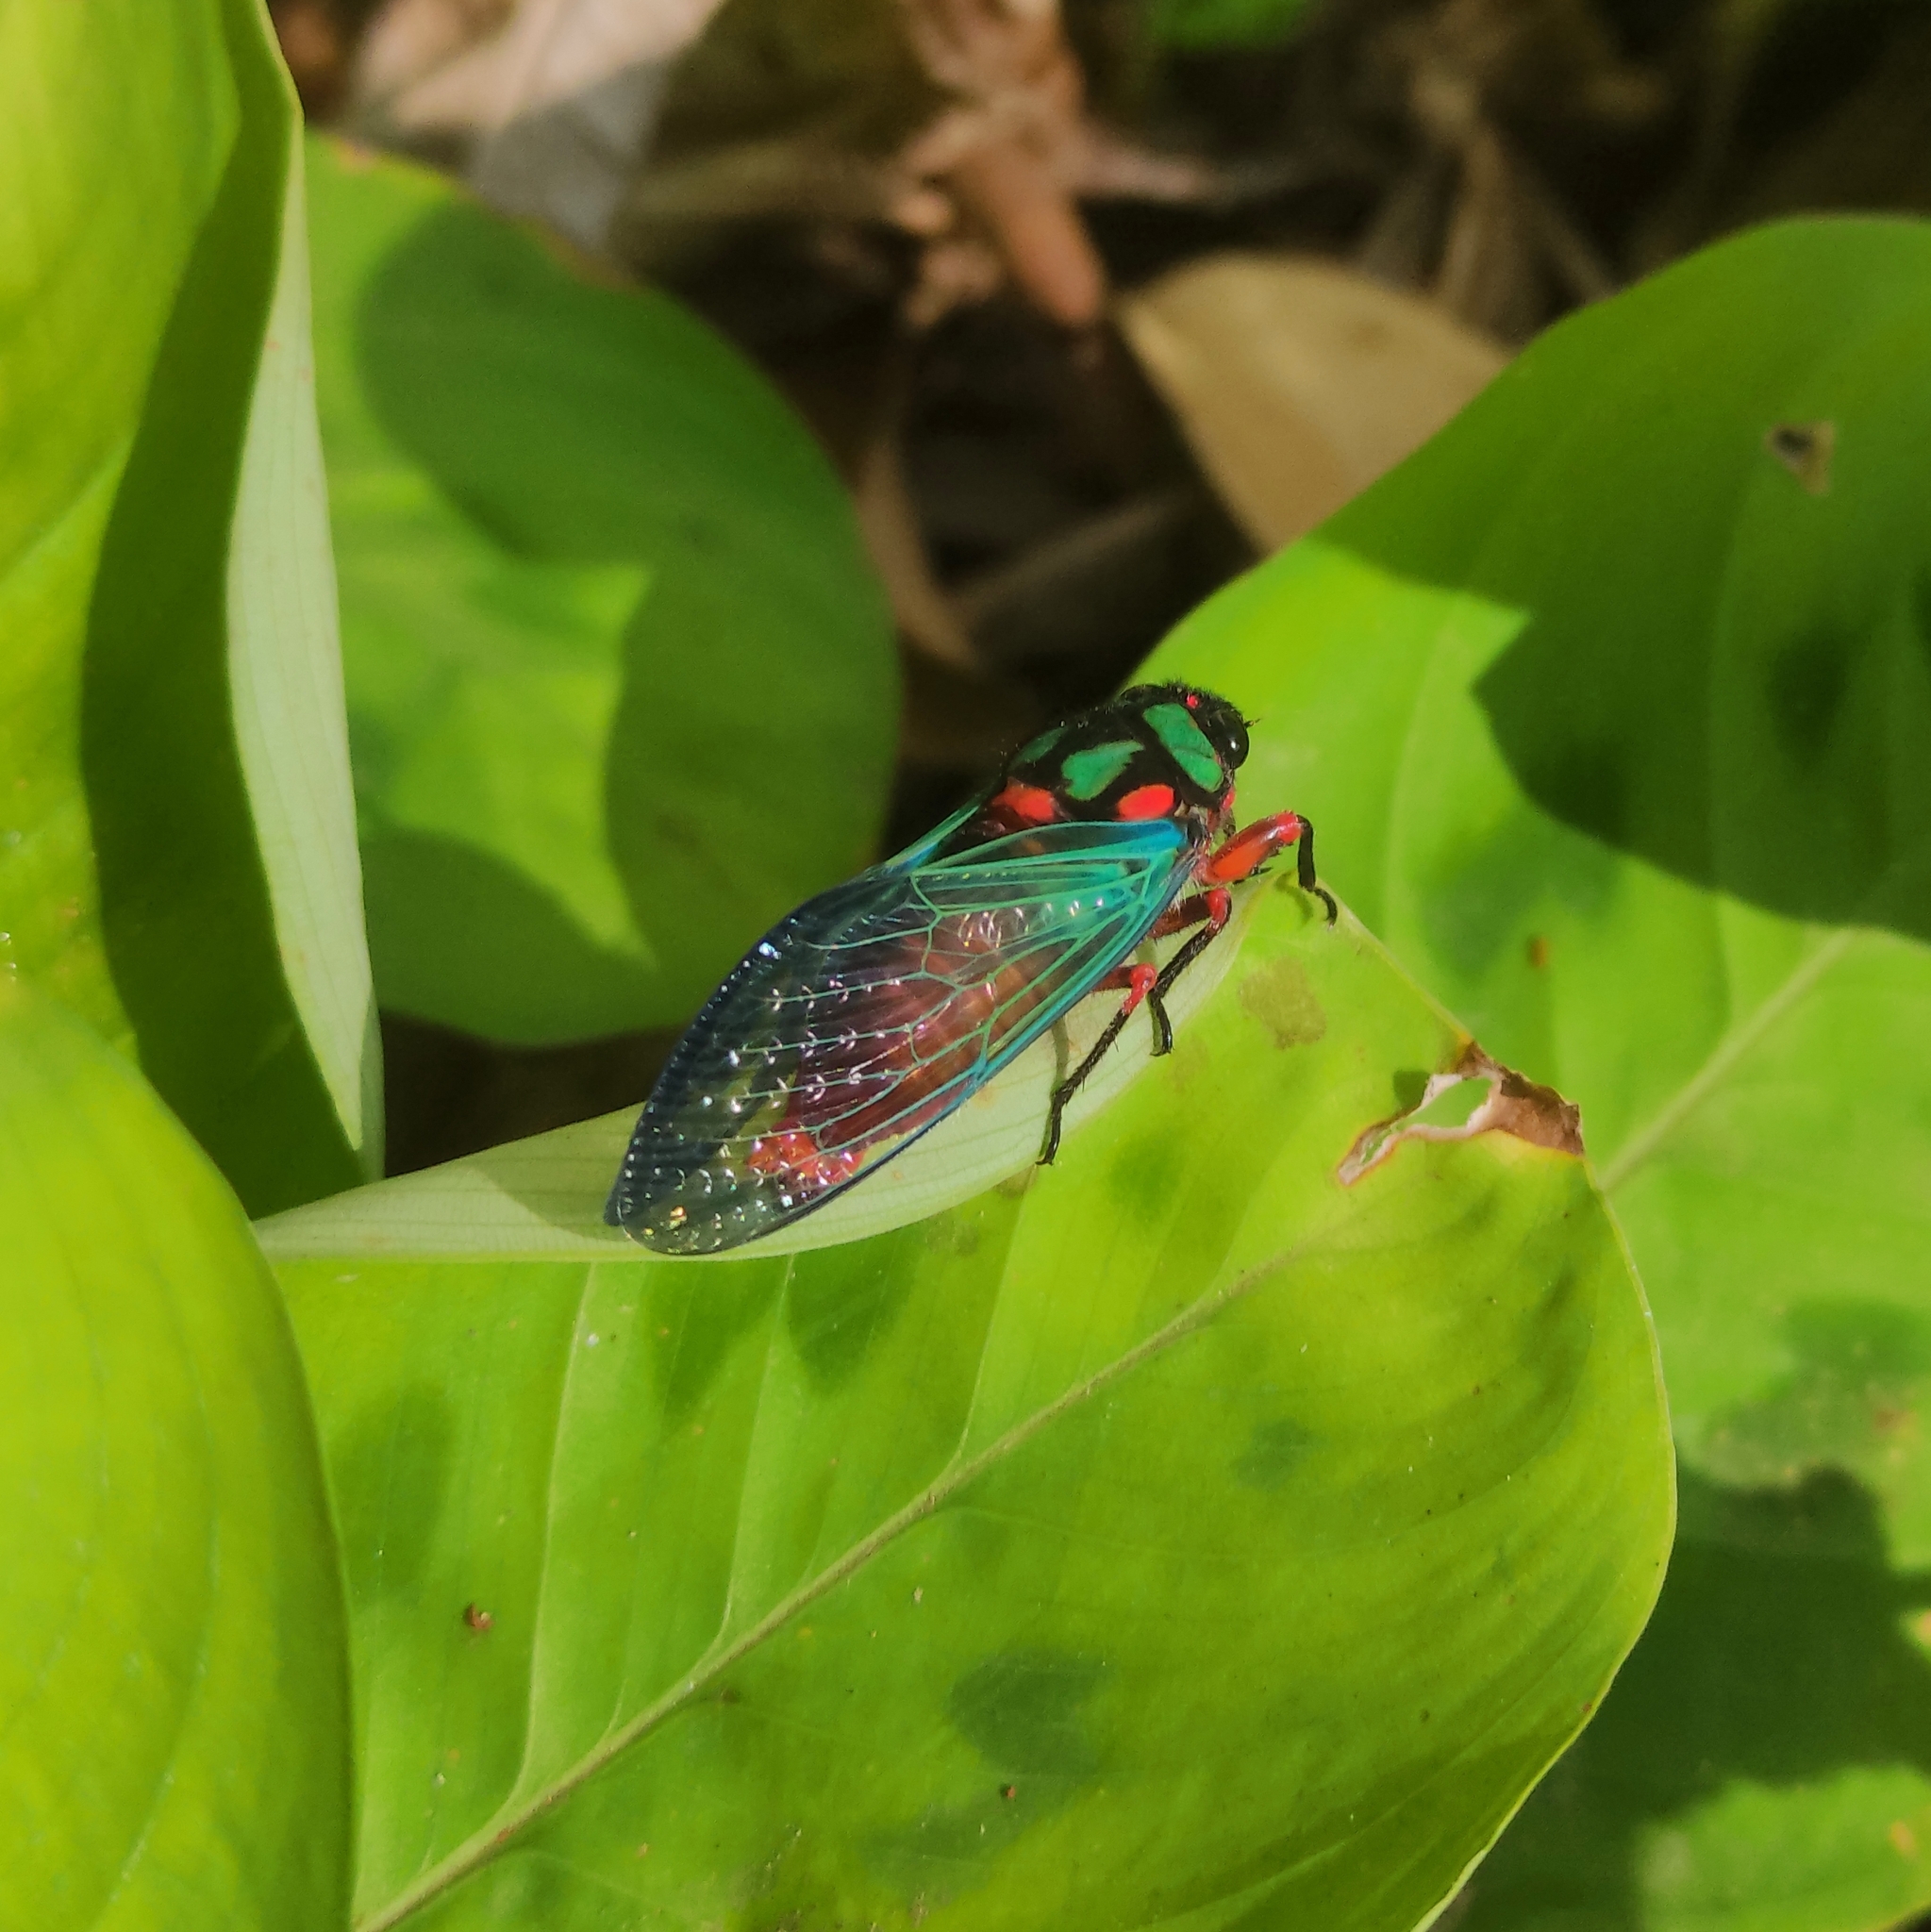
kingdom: Animalia
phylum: Arthropoda
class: Insecta
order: Hemiptera
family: Cicadidae
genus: Carineta
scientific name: Carineta diardi
